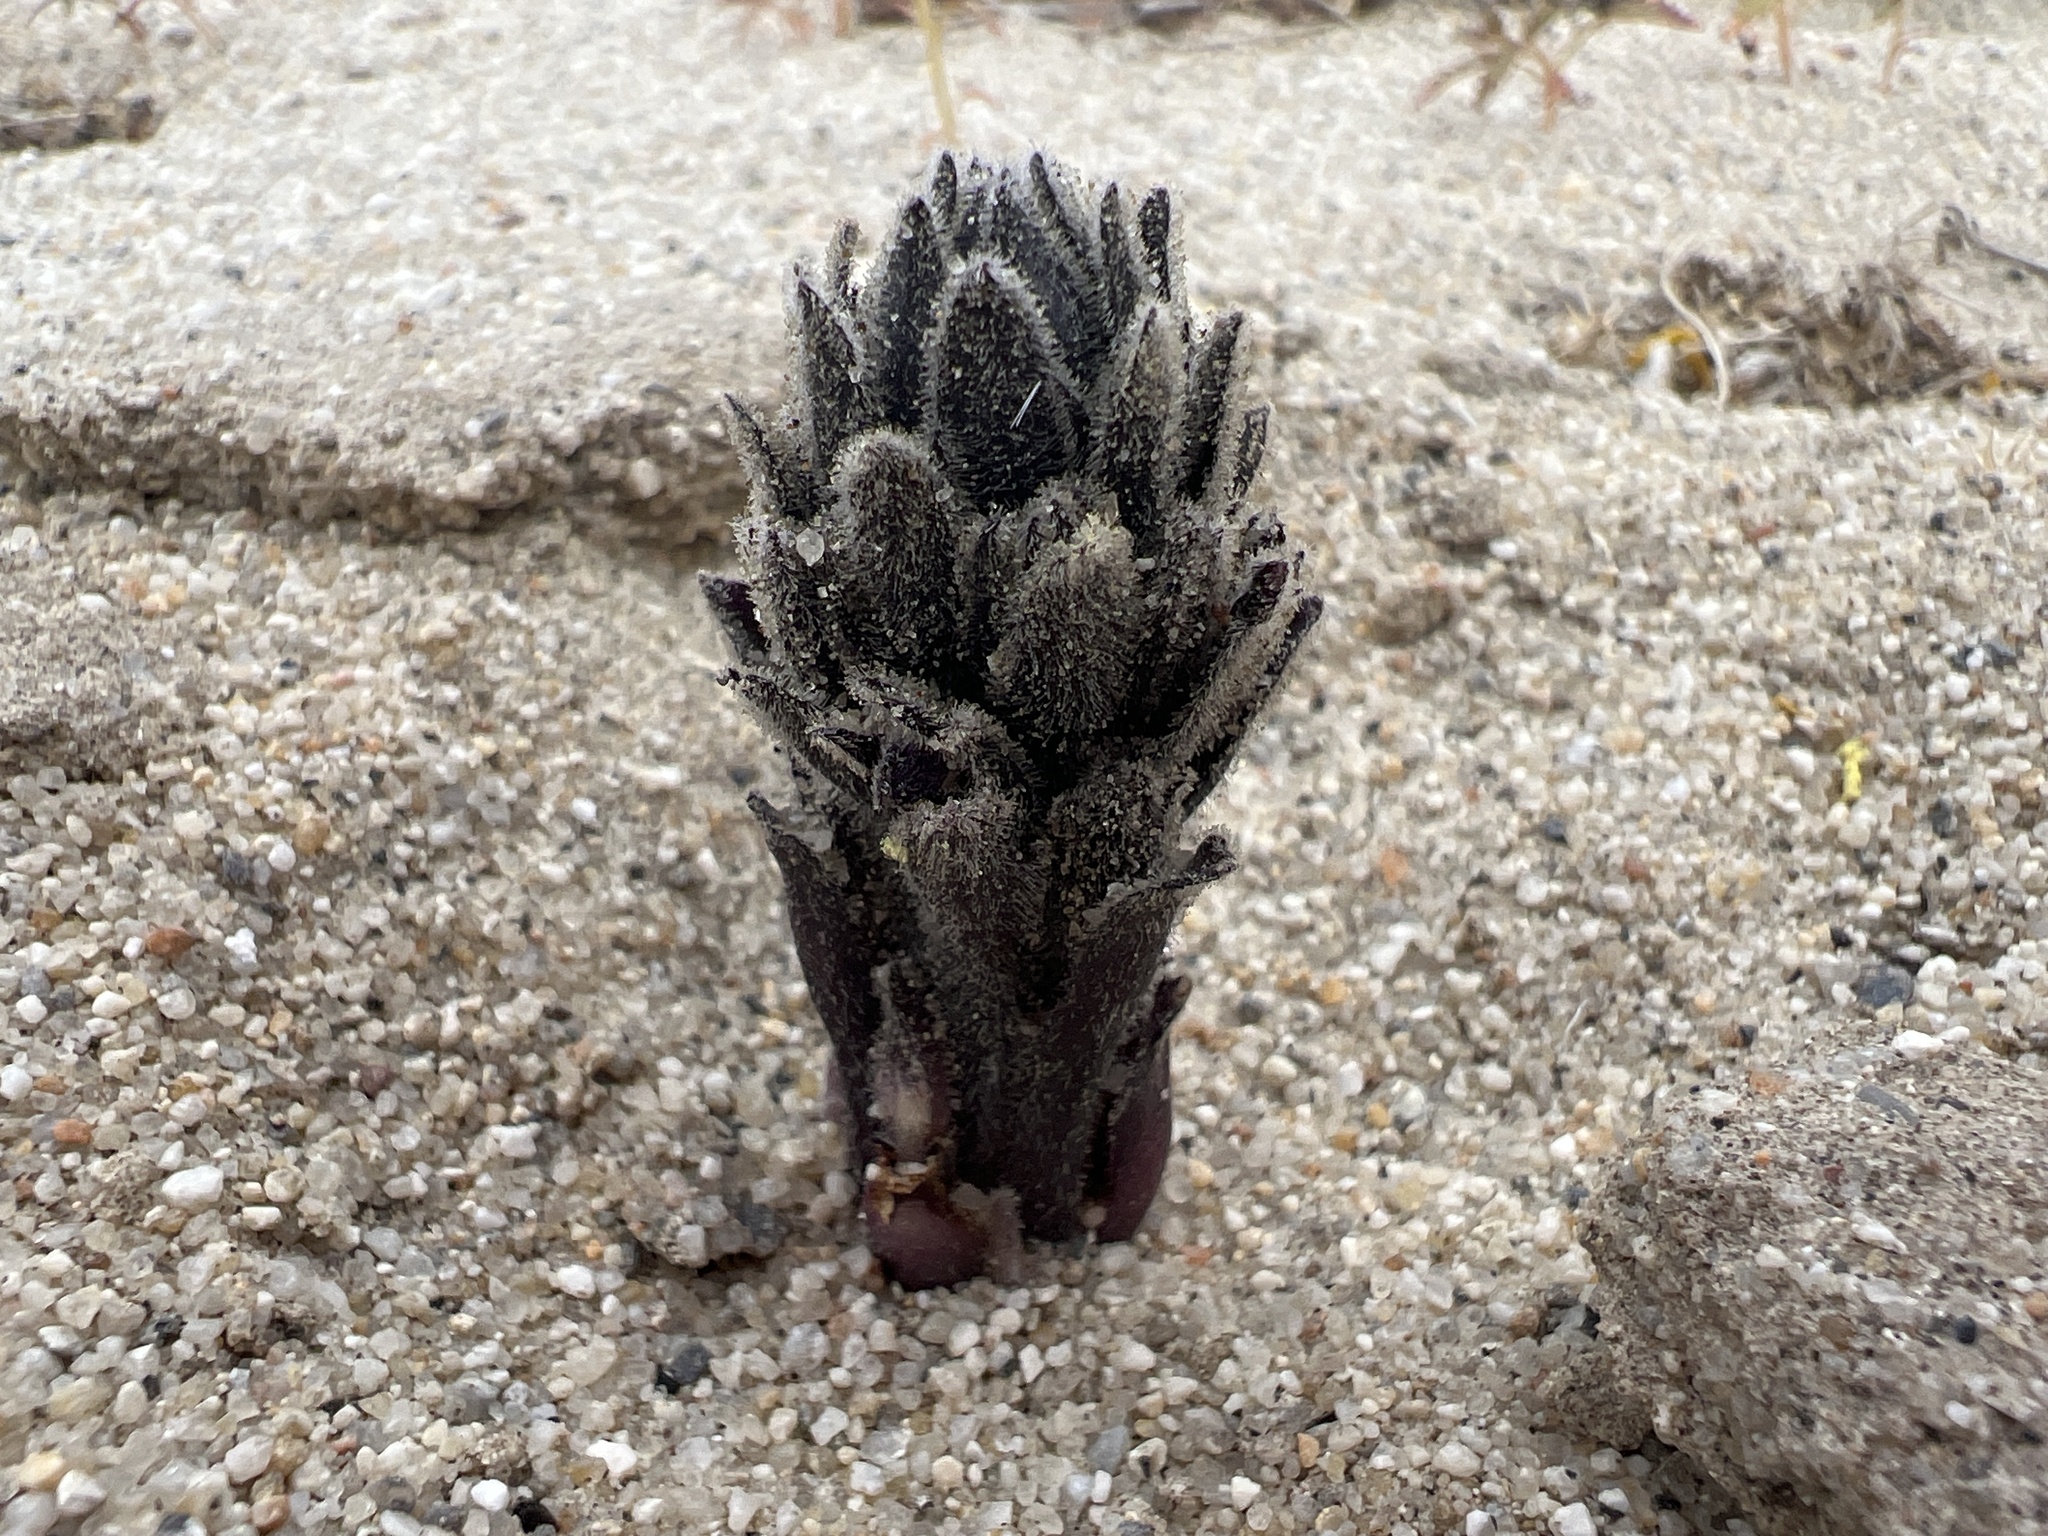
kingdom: Plantae
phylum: Tracheophyta
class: Magnoliopsida
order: Lamiales
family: Orobanchaceae
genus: Aphyllon
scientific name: Aphyllon cooperi
